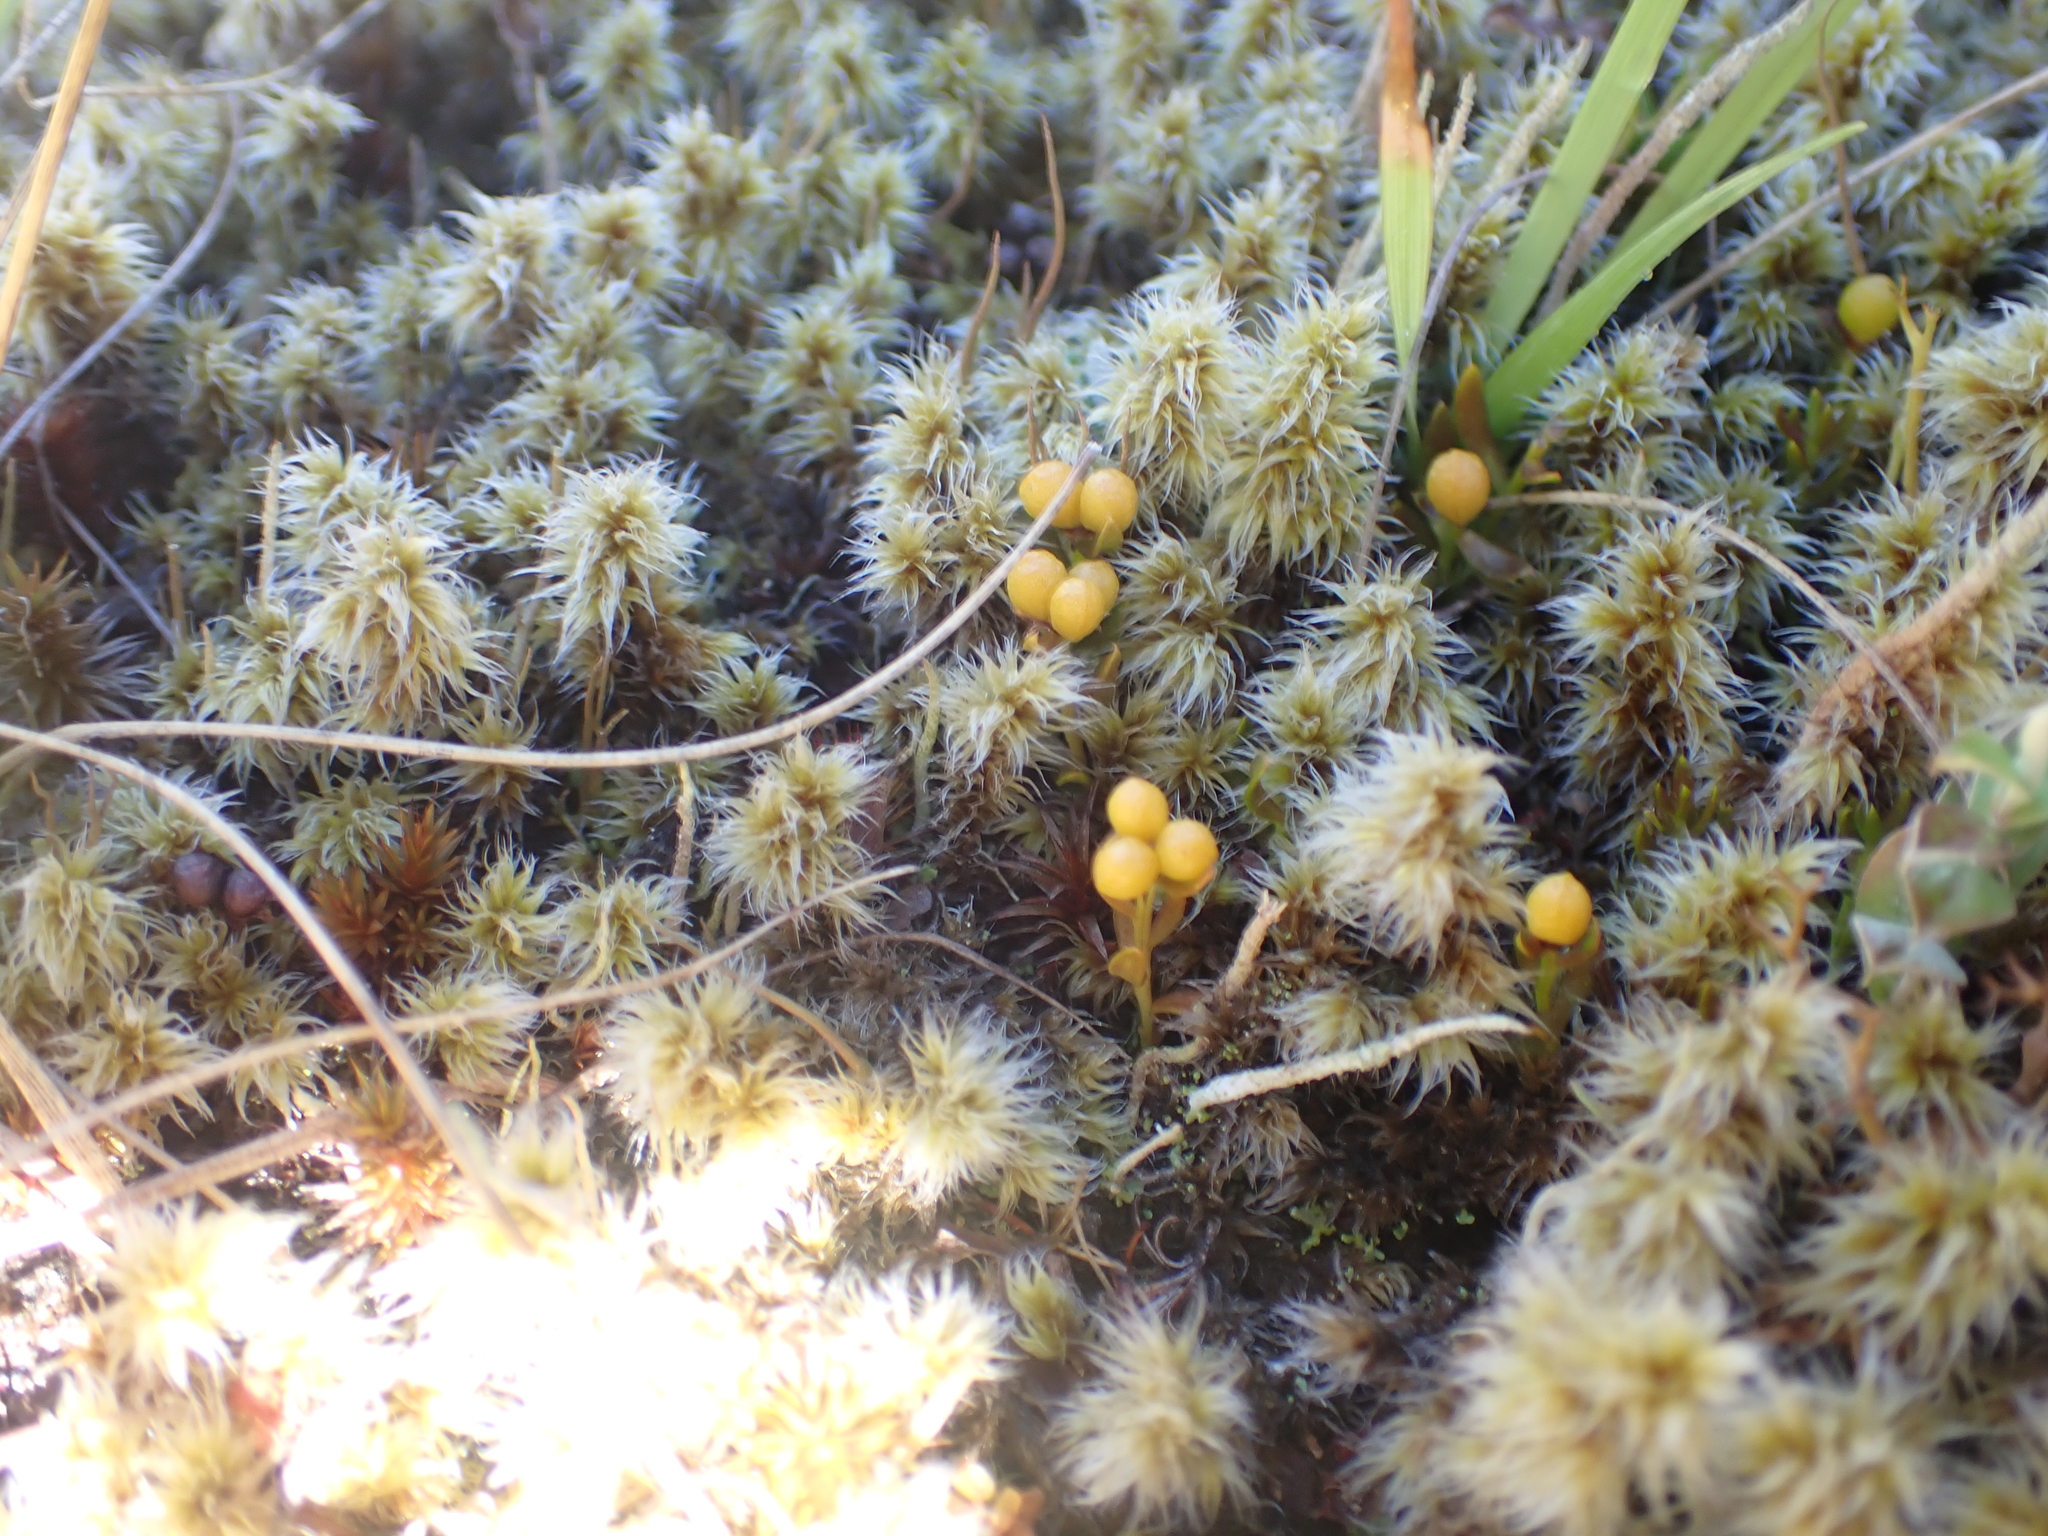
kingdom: Plantae
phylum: Tracheophyta
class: Magnoliopsida
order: Celastrales
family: Celastraceae
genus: Stackhousia
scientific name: Stackhousia minima
